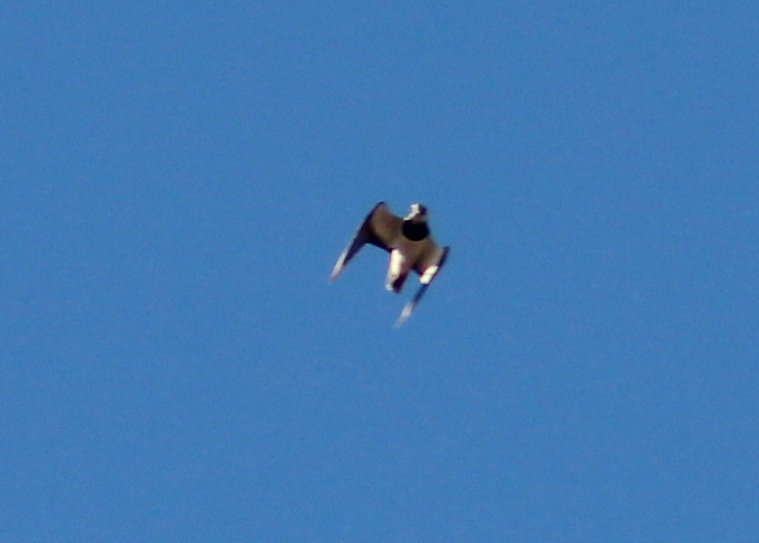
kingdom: Animalia
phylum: Chordata
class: Aves
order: Charadriiformes
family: Charadriidae
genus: Vanellus
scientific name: Vanellus vanellus
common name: Northern lapwing
